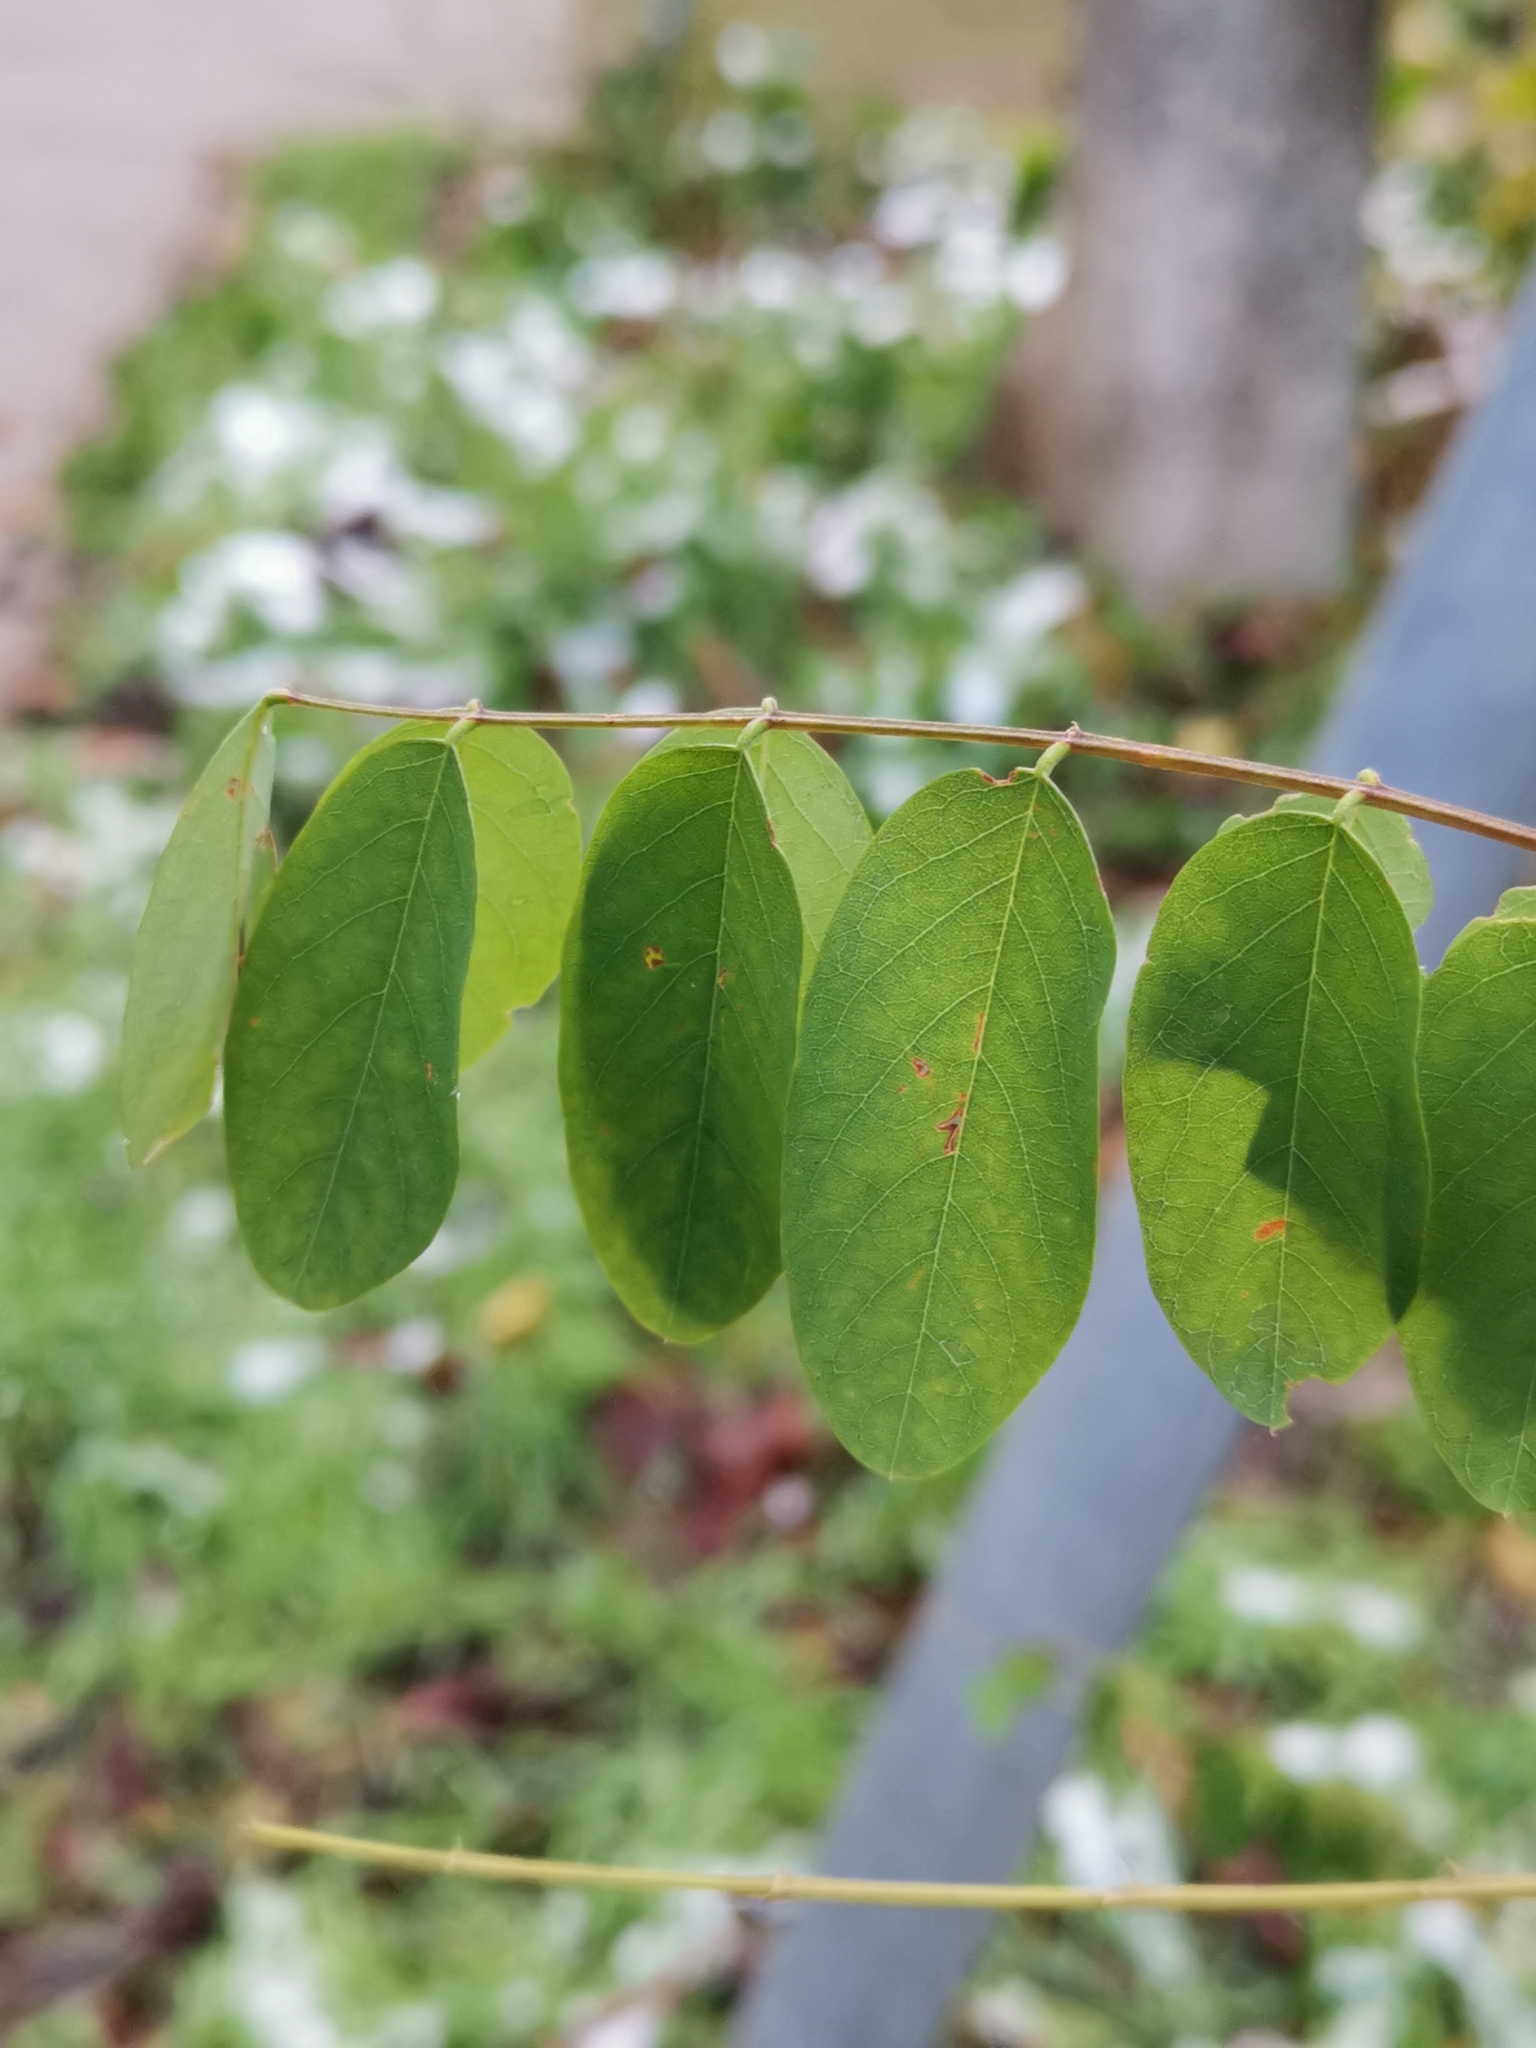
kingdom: Plantae
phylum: Tracheophyta
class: Magnoliopsida
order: Fabales
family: Fabaceae
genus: Robinia
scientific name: Robinia pseudoacacia
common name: Black locust
